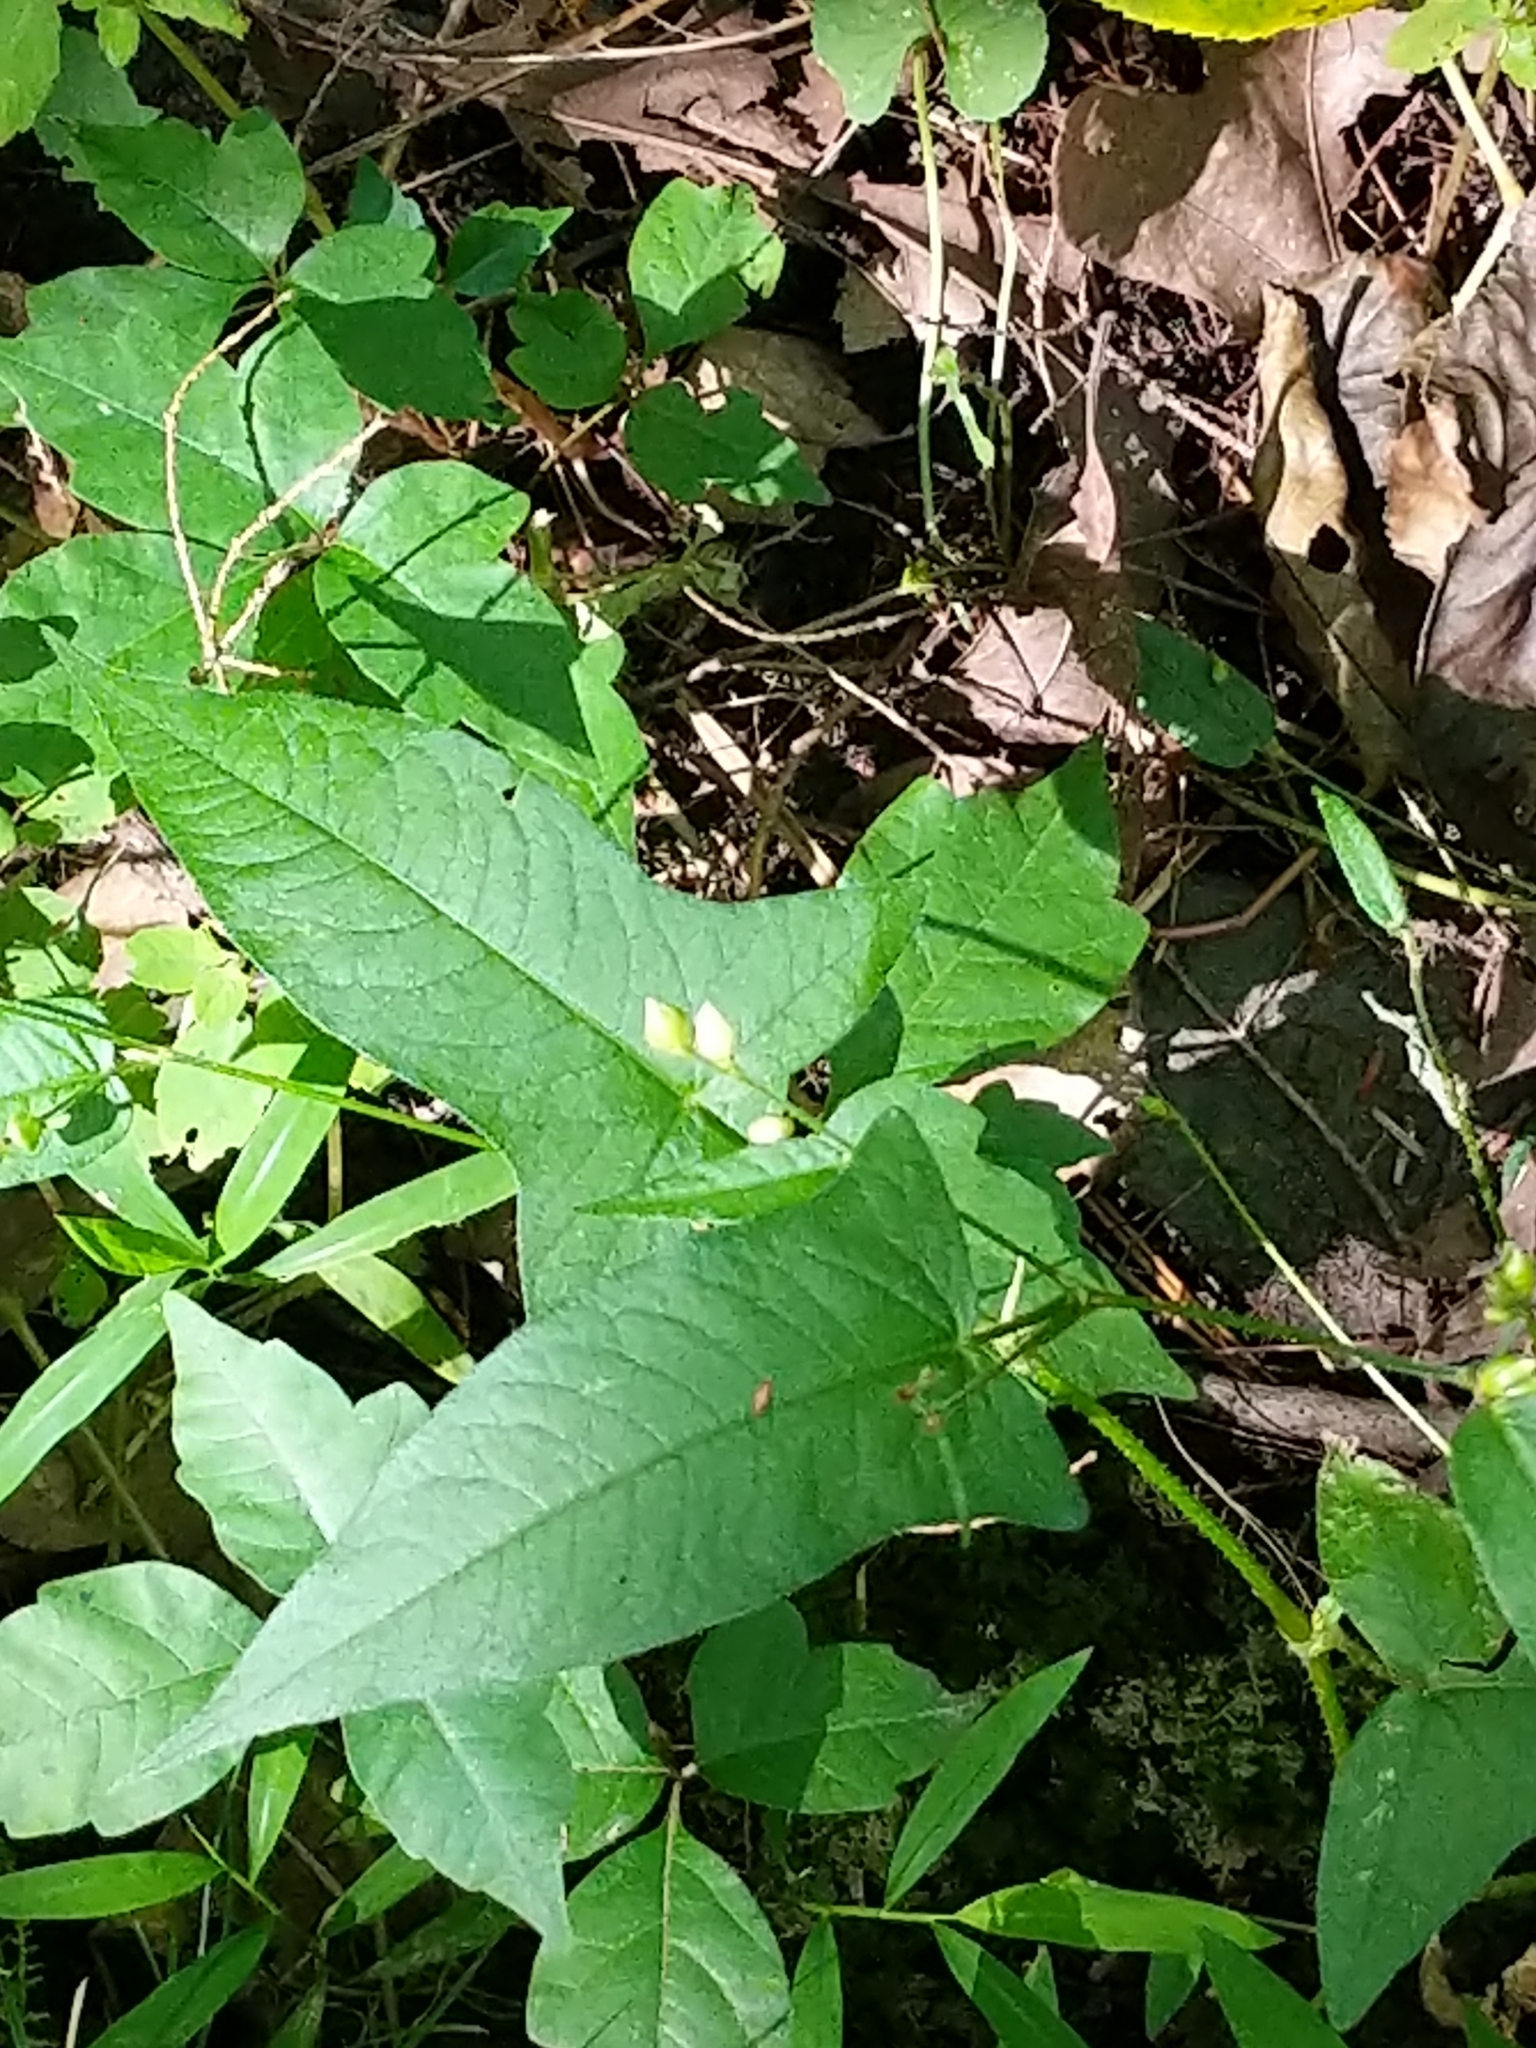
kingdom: Plantae
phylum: Tracheophyta
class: Magnoliopsida
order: Caryophyllales
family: Polygonaceae
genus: Persicaria
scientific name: Persicaria arifolia
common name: Halberd-leaved tear-thumb
